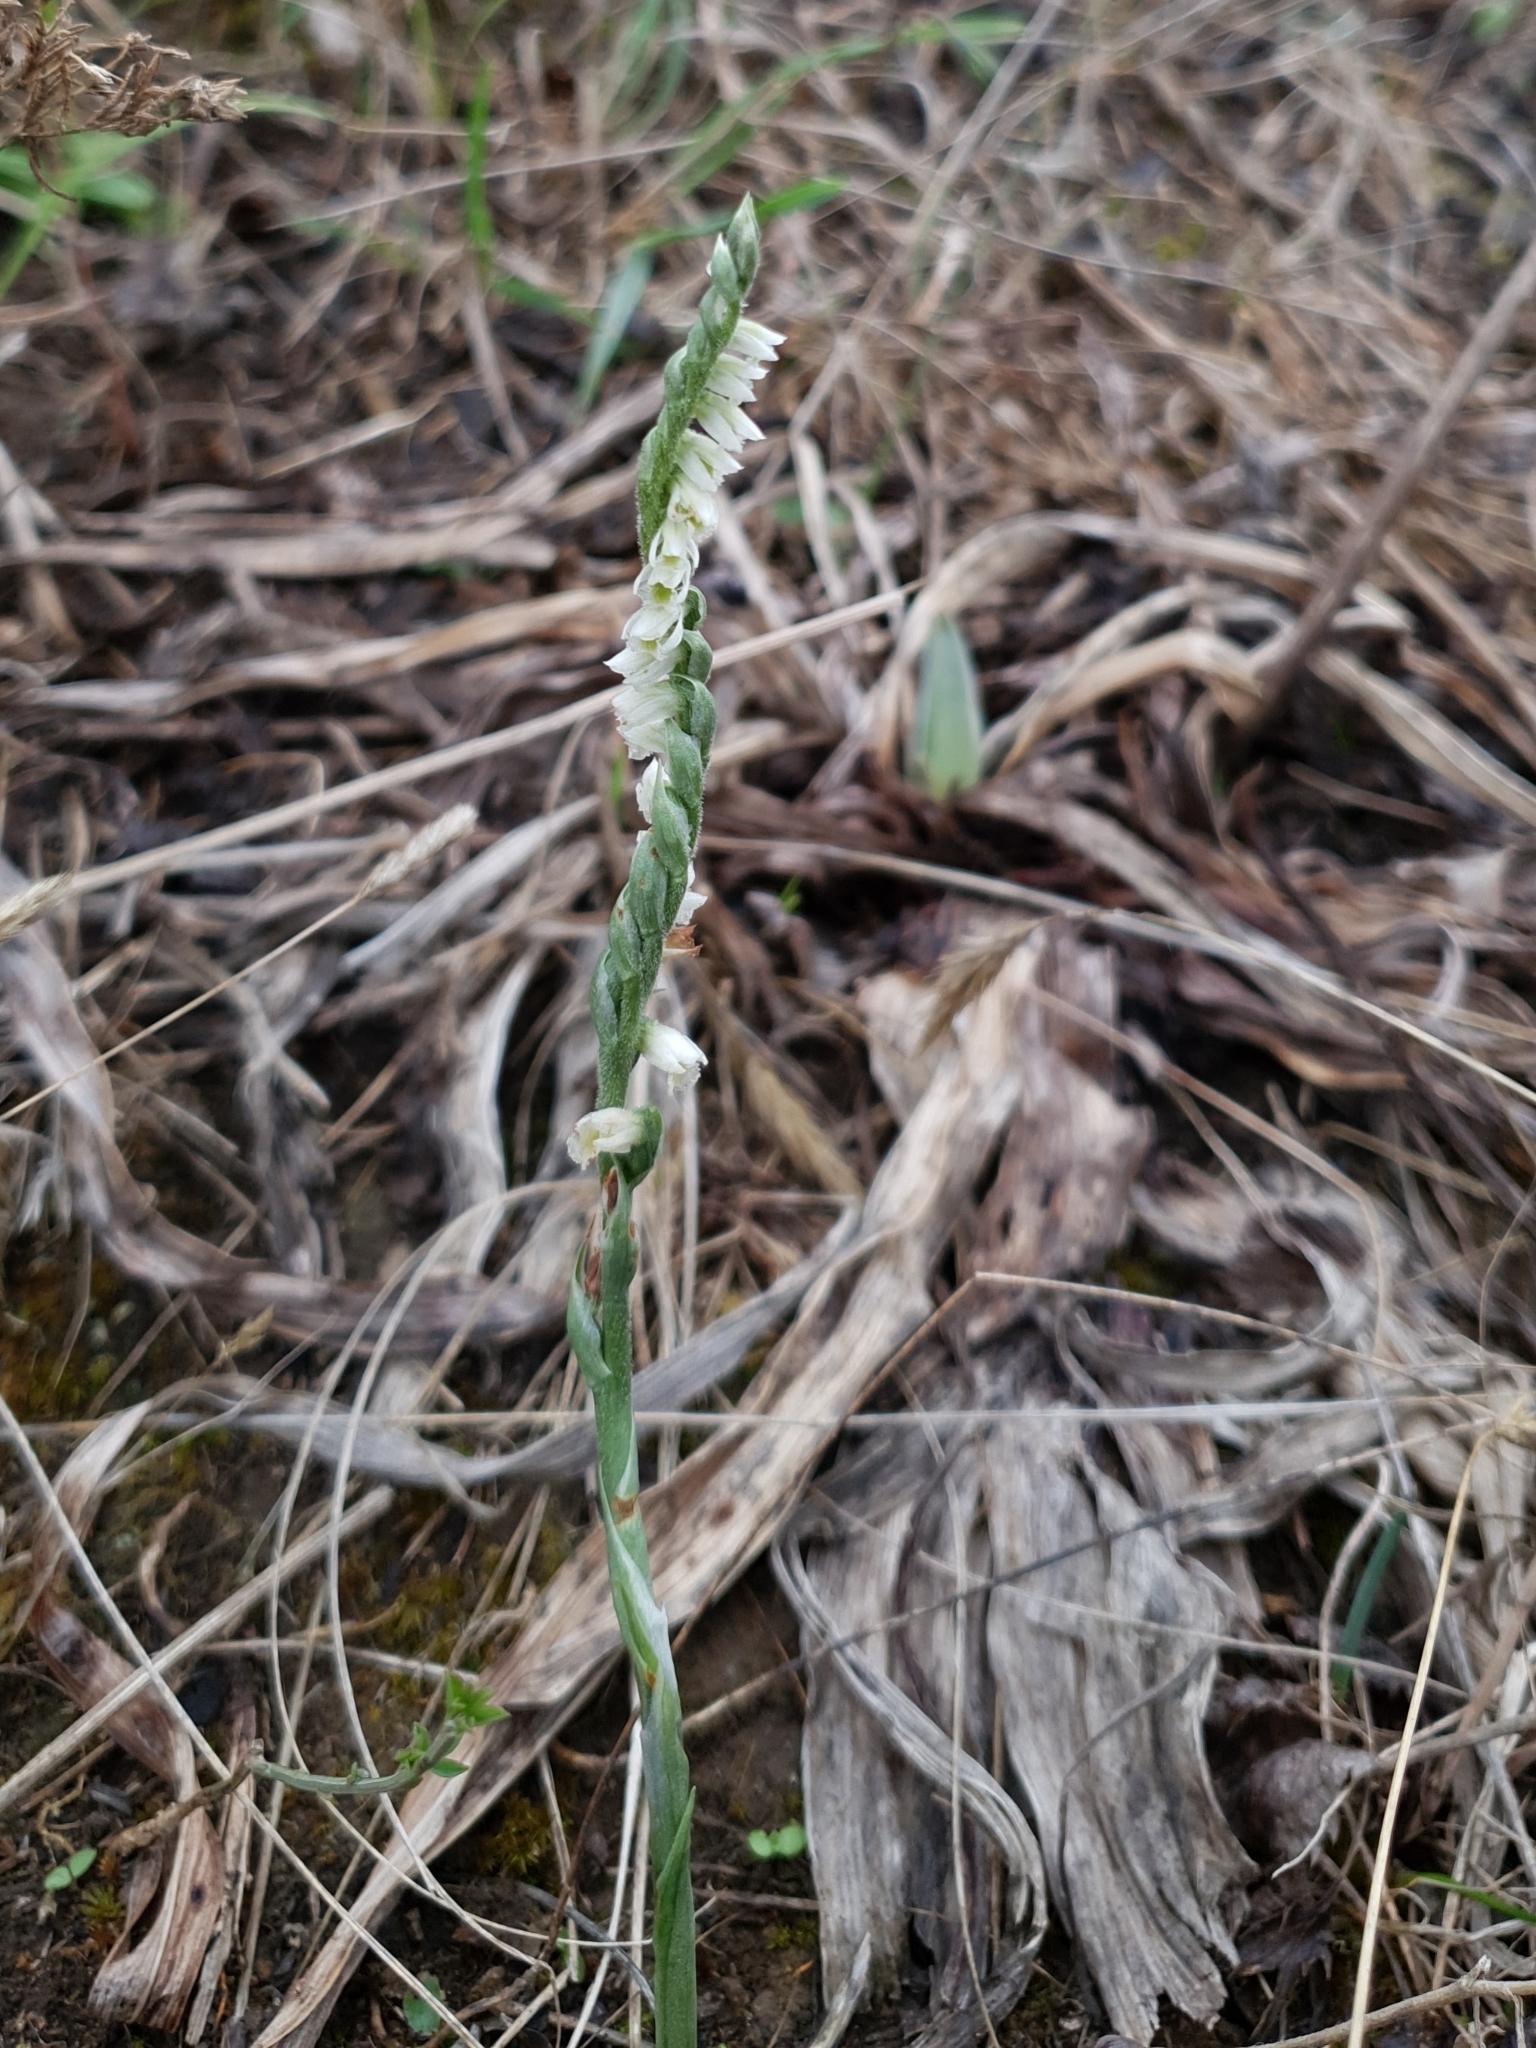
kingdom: Plantae
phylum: Tracheophyta
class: Liliopsida
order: Asparagales
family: Orchidaceae
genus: Spiranthes
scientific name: Spiranthes spiralis
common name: Autumn lady's-tresses
